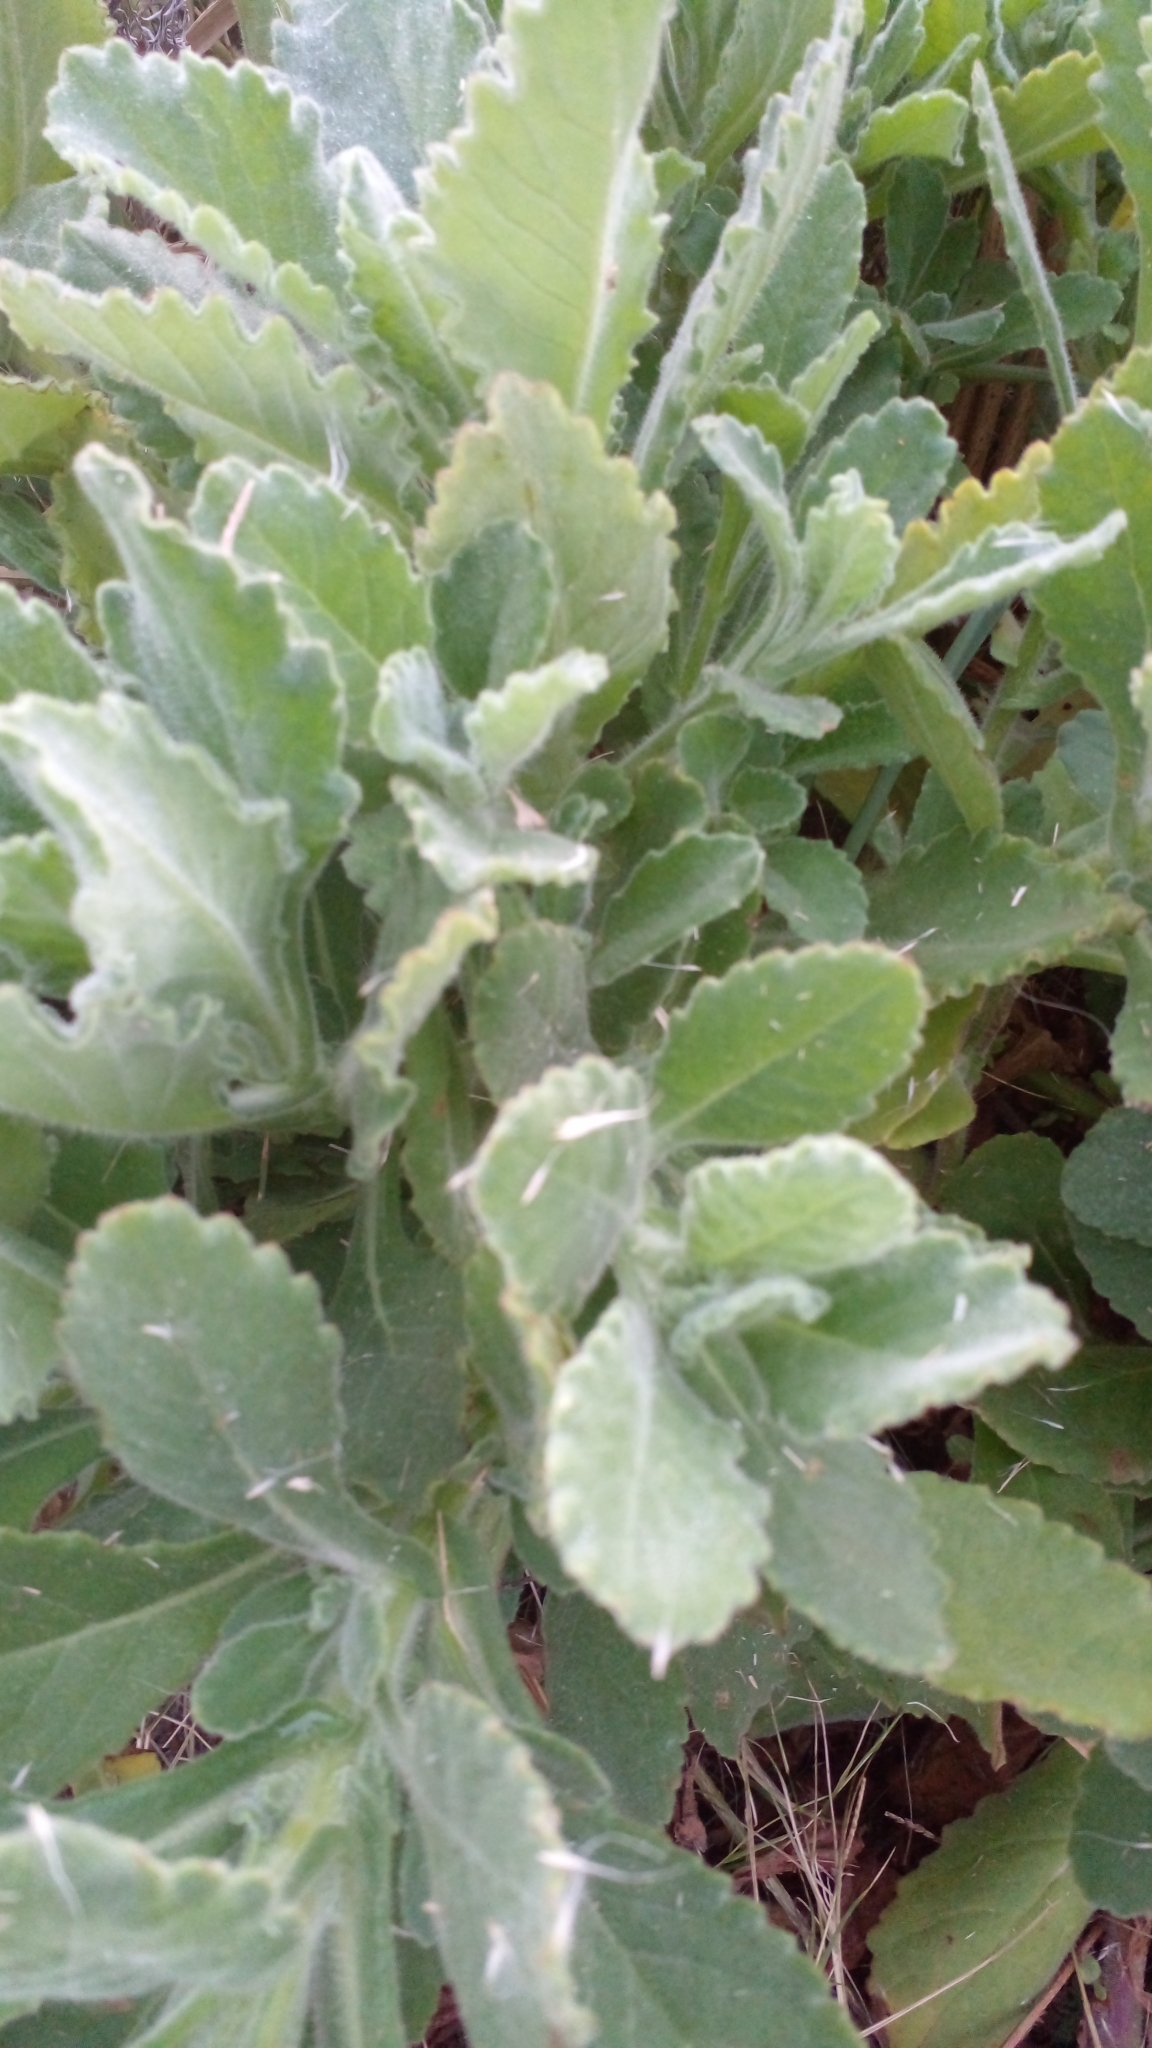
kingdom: Plantae
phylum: Tracheophyta
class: Magnoliopsida
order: Asterales
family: Asteraceae
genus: Senecio
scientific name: Senecio selloi
